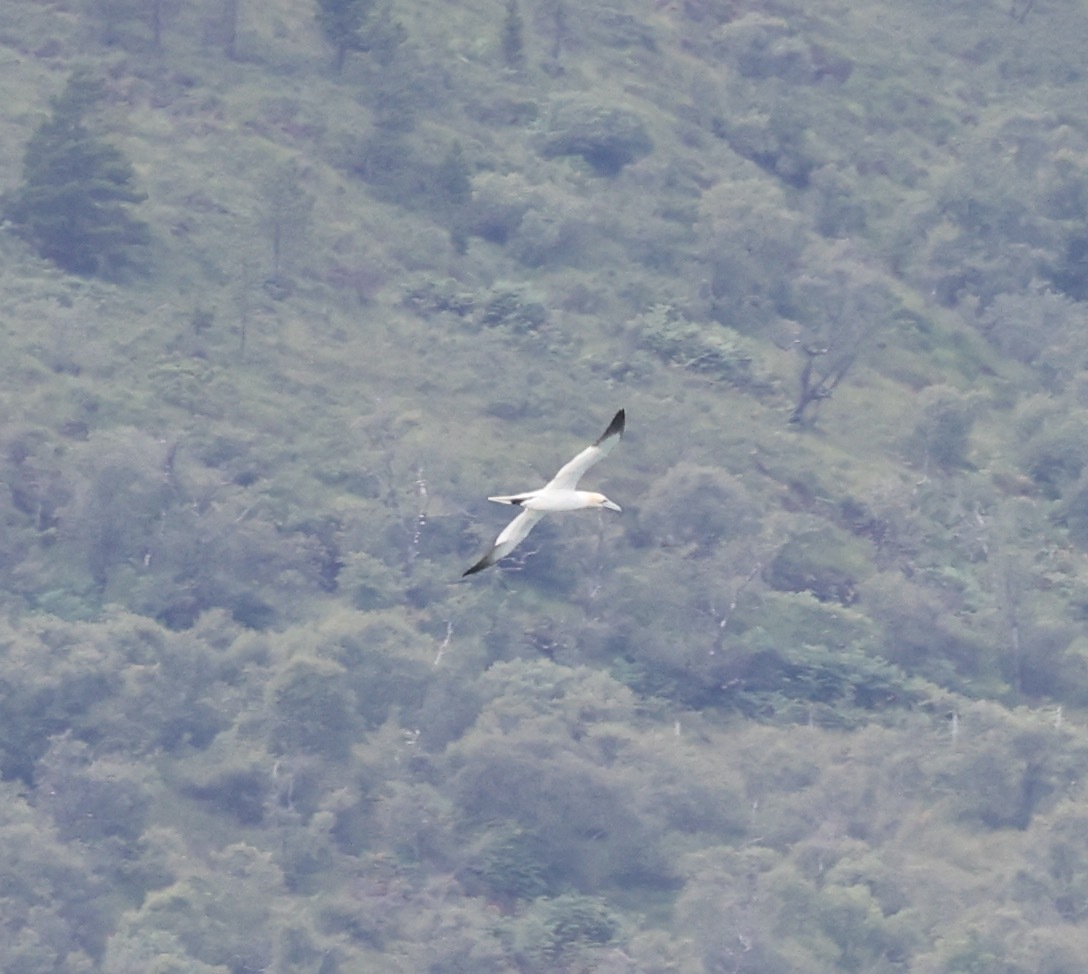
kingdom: Animalia
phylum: Chordata
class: Aves
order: Suliformes
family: Sulidae
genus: Morus
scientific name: Morus bassanus
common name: Northern gannet
